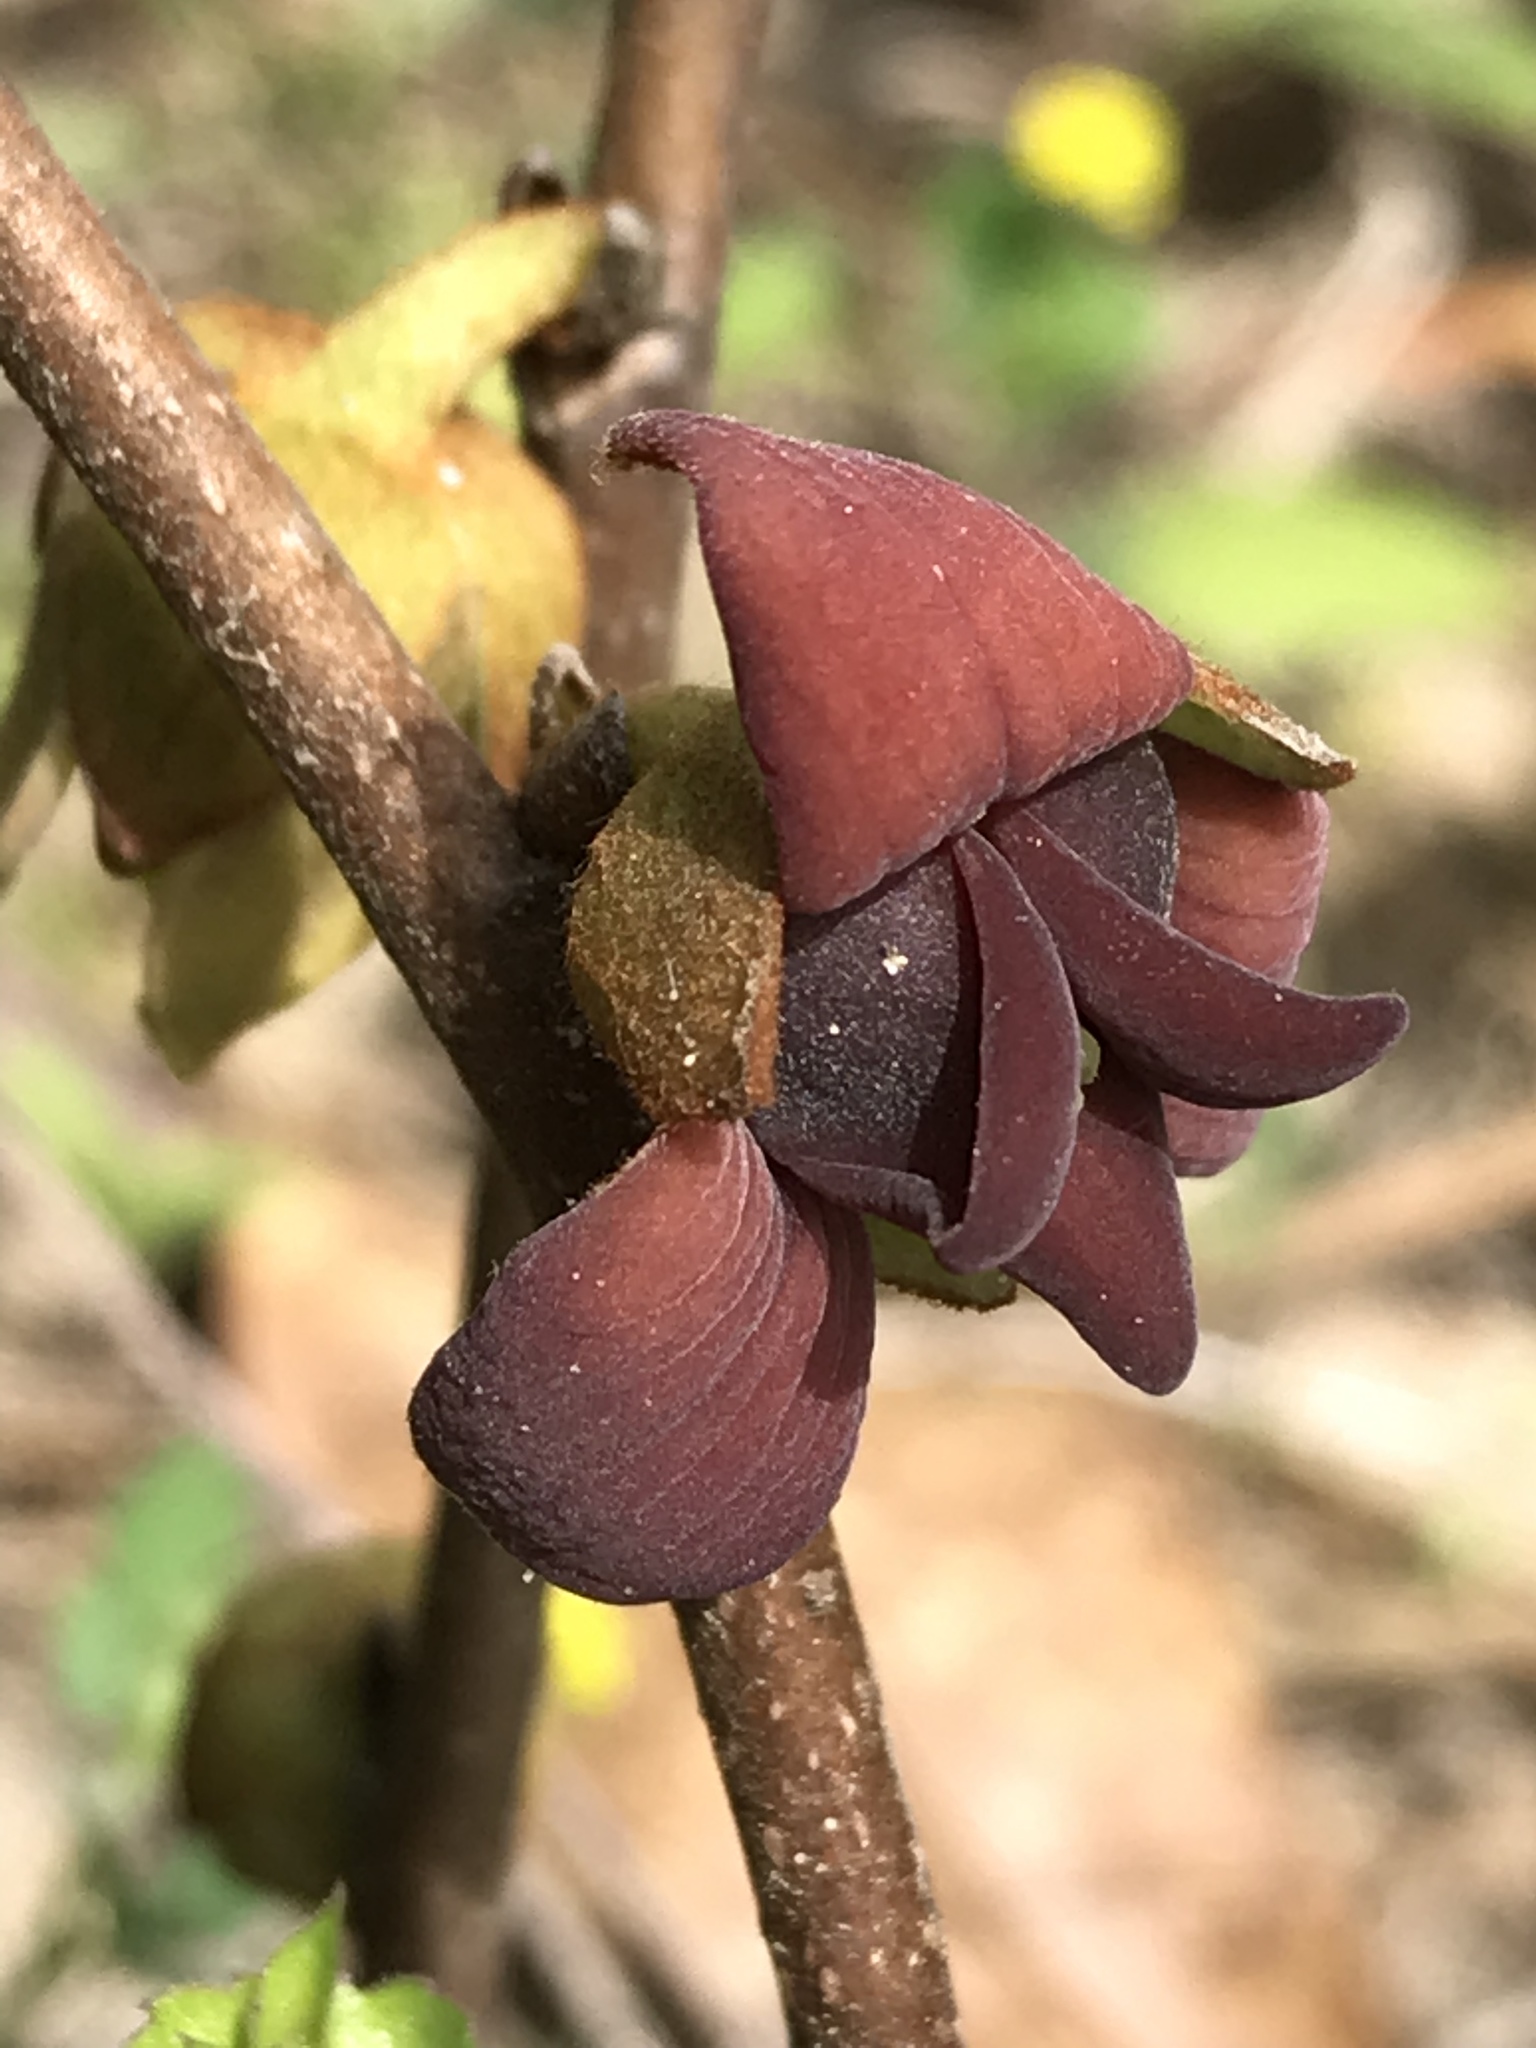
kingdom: Plantae
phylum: Tracheophyta
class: Magnoliopsida
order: Magnoliales
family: Annonaceae
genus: Asimina
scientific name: Asimina parviflora
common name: Dwarf pawpaw
